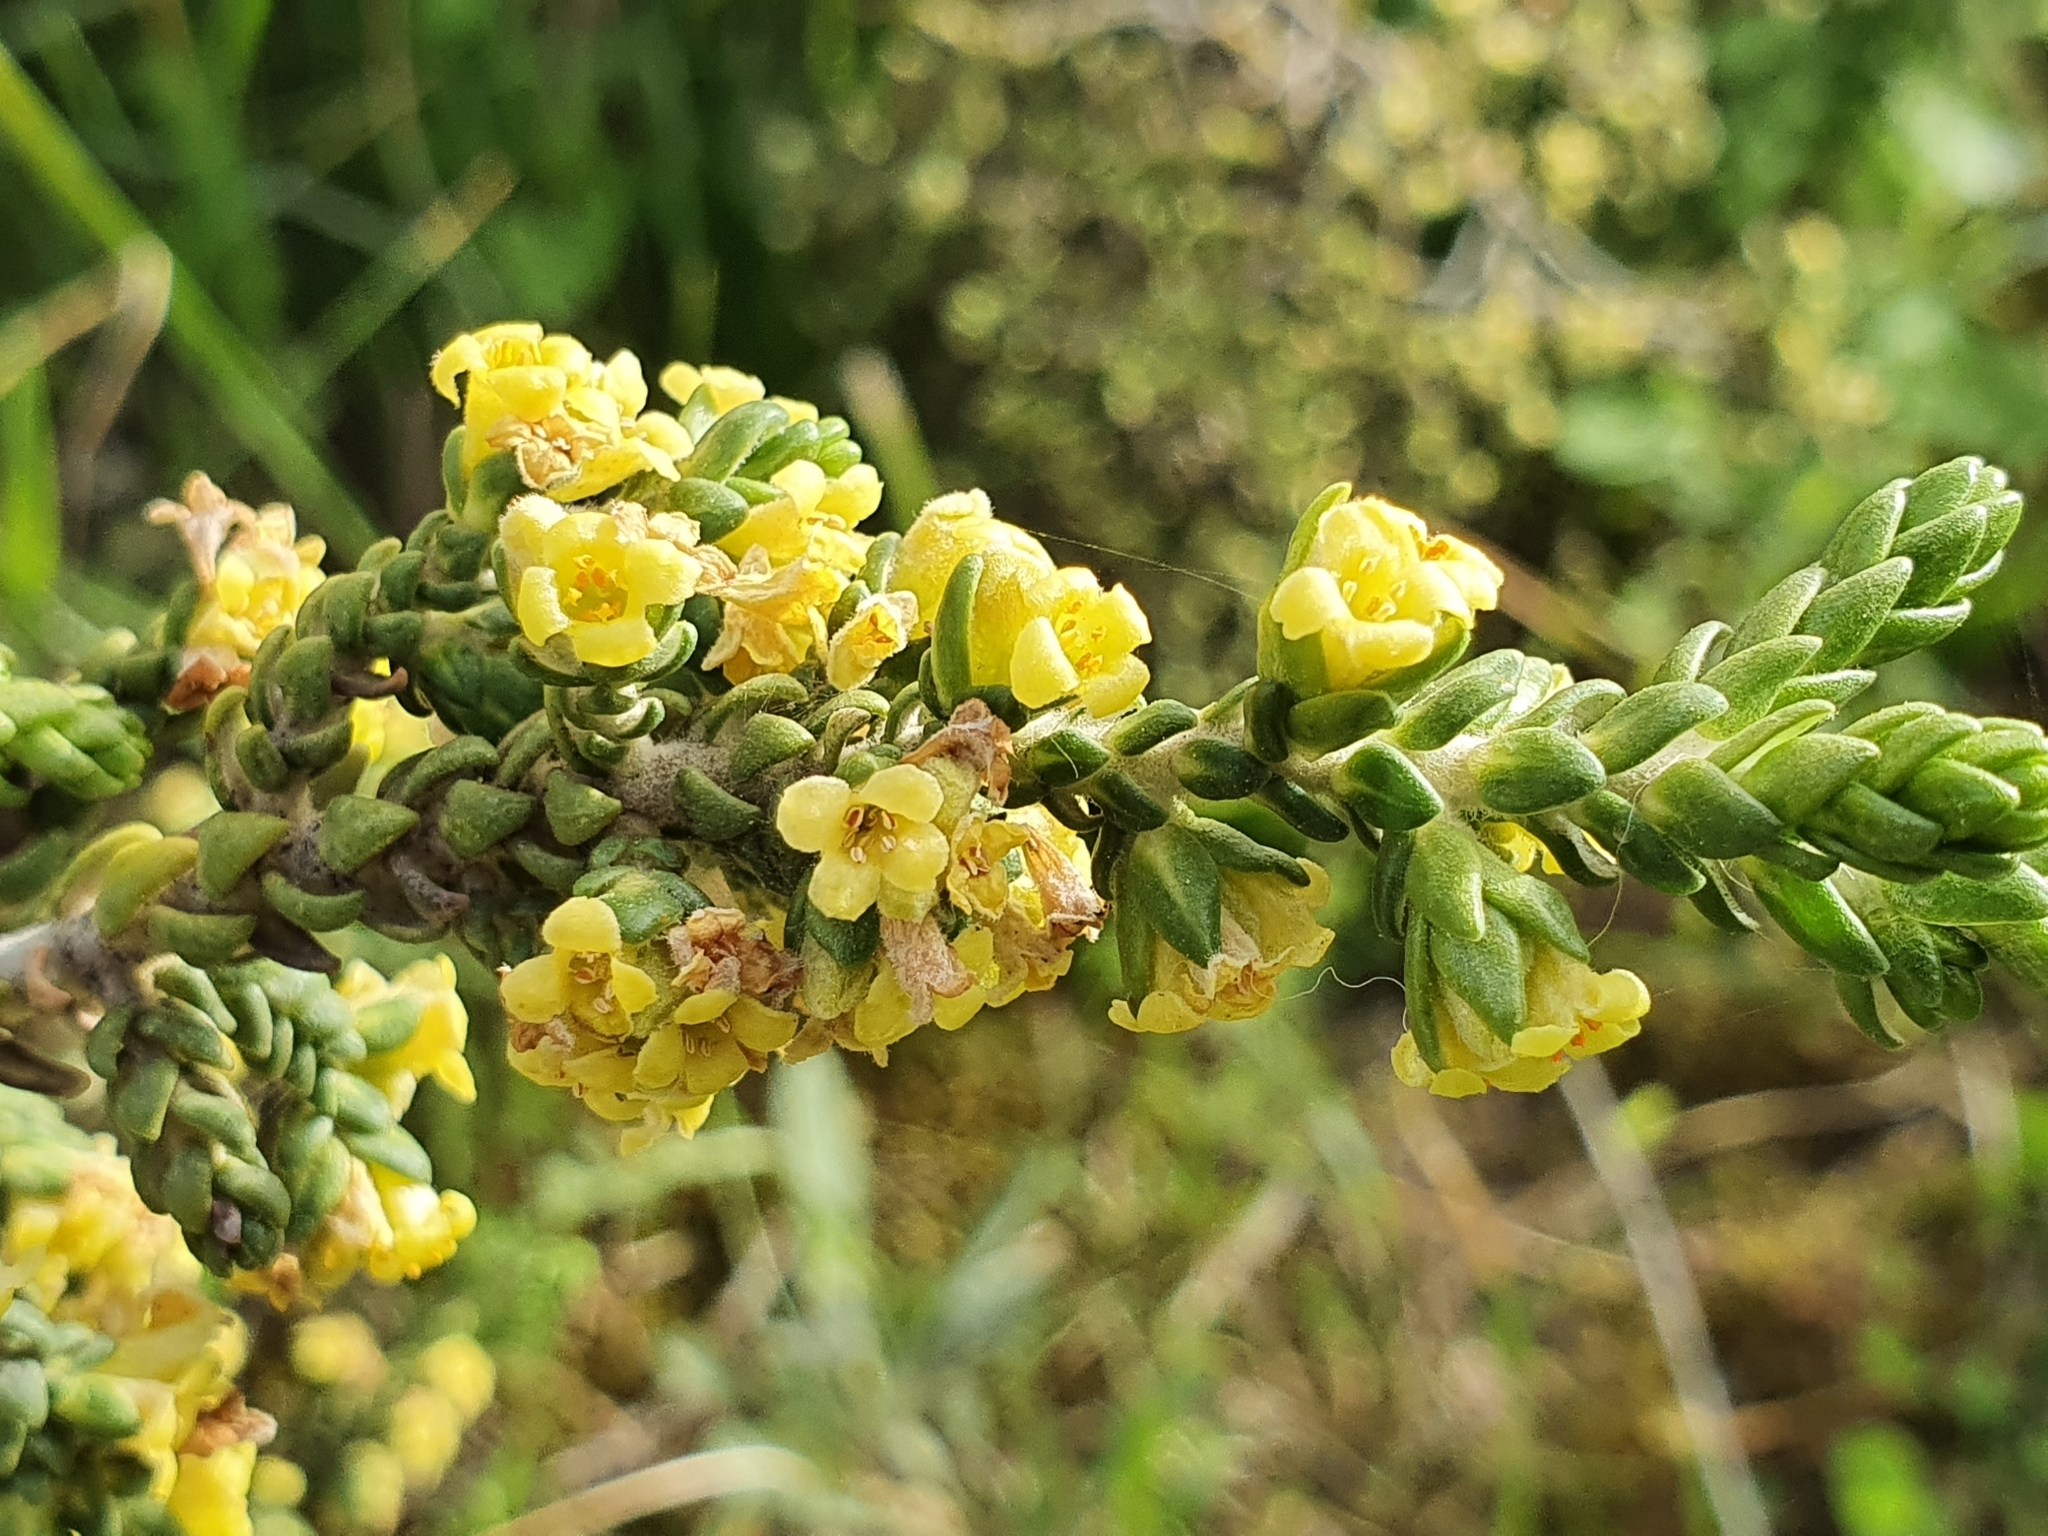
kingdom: Plantae
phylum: Tracheophyta
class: Magnoliopsida
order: Malvales
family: Thymelaeaceae
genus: Thymelaea
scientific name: Thymelaea hirsuta
